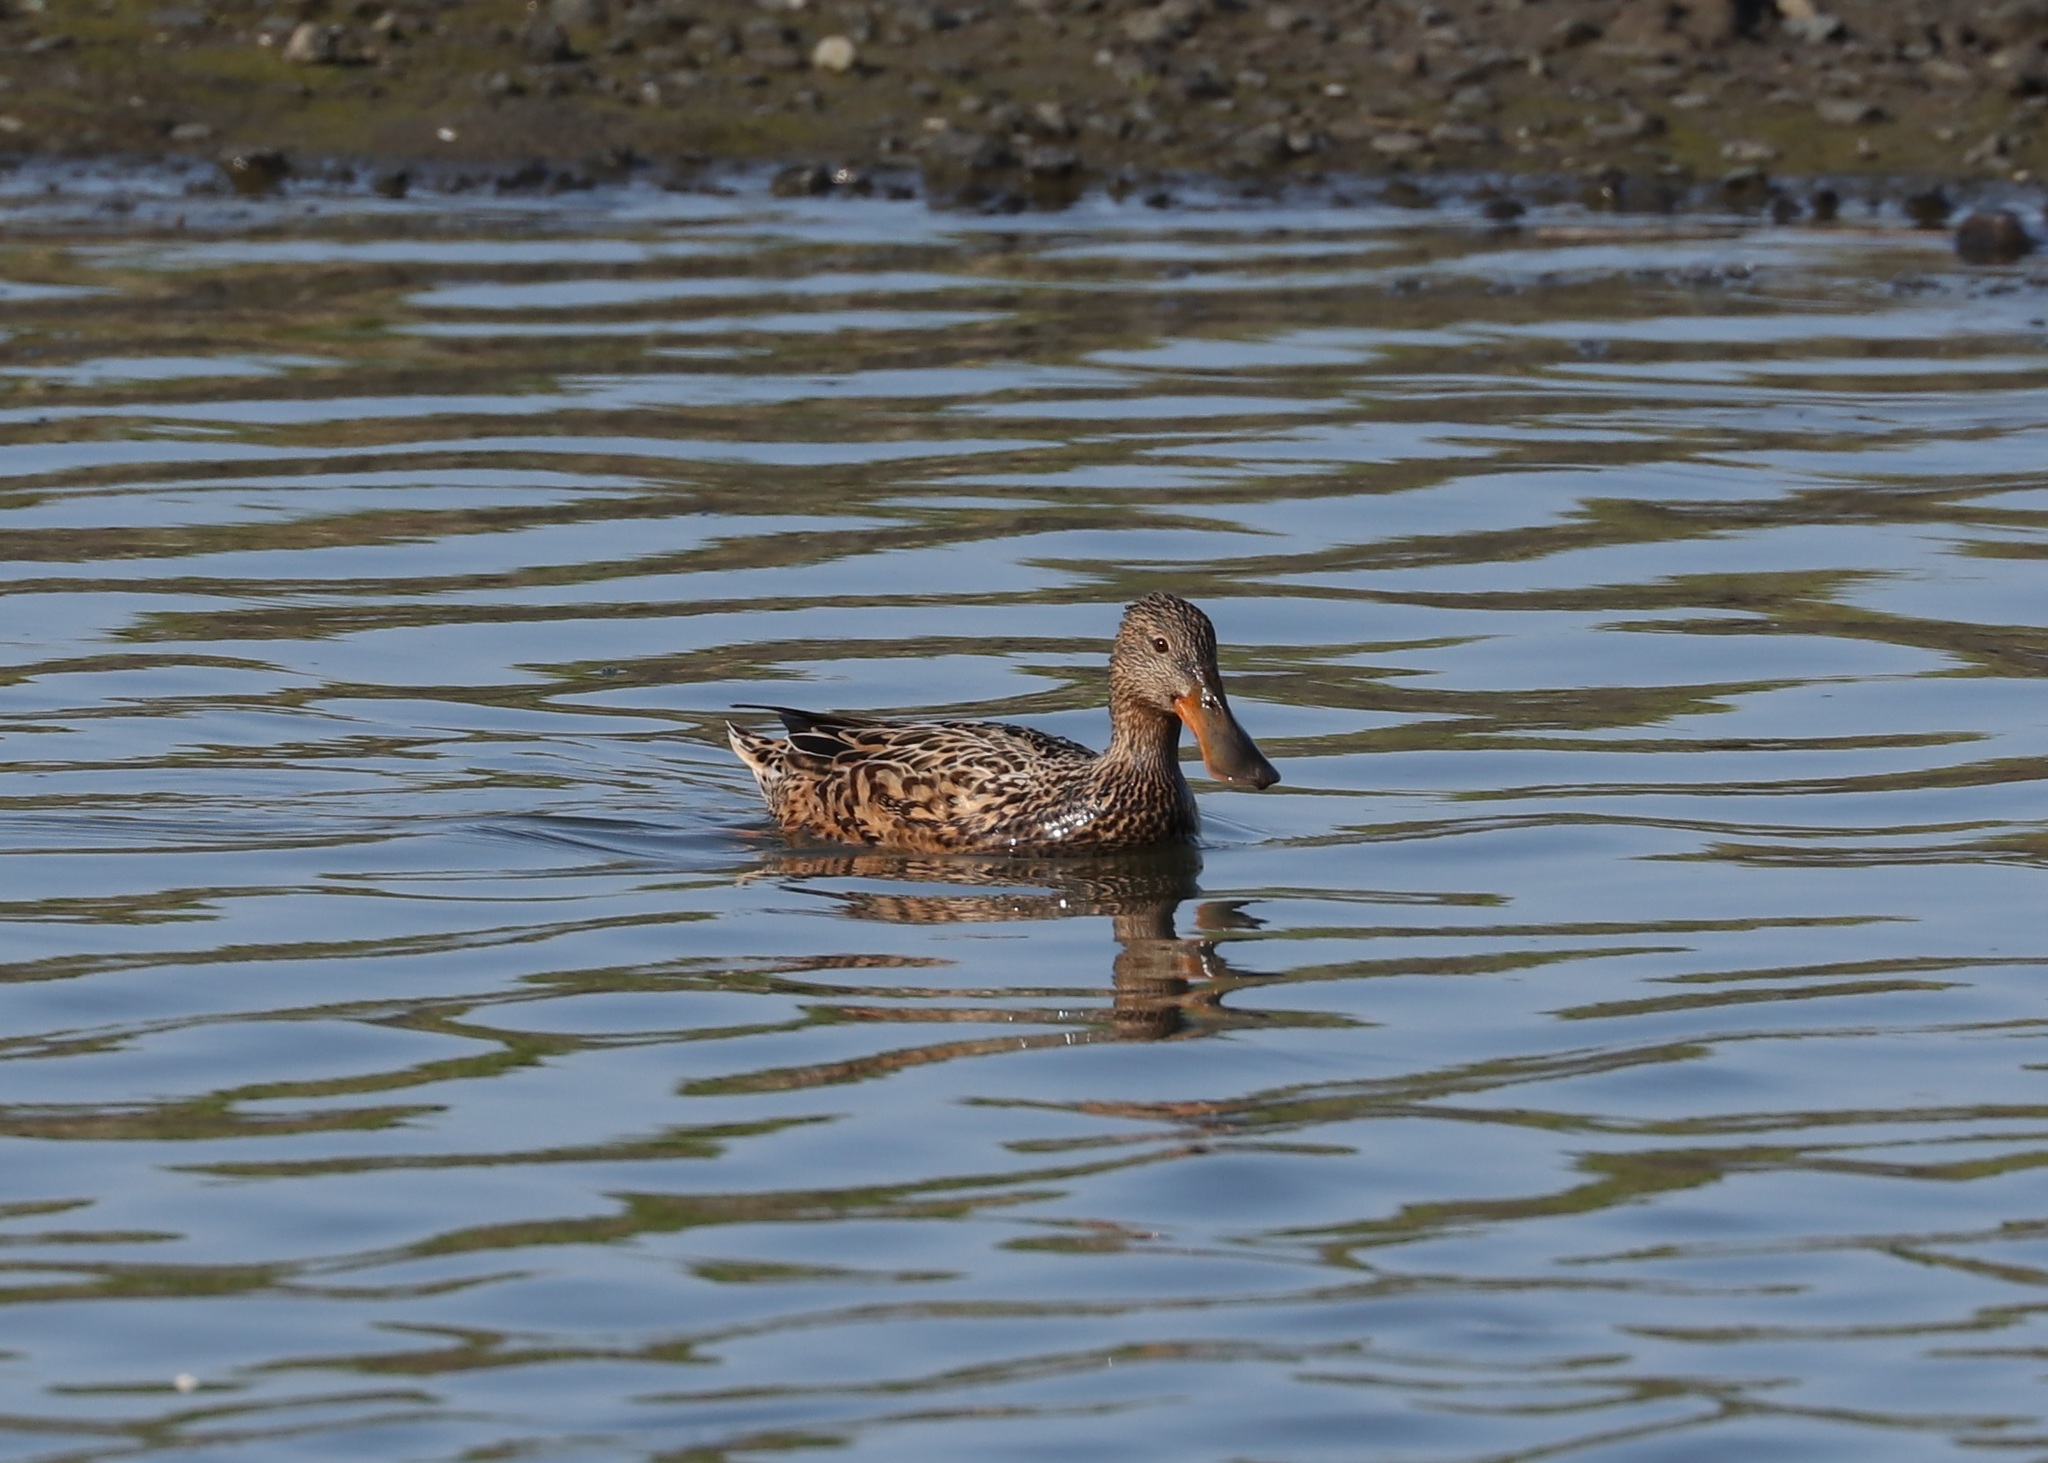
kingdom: Animalia
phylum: Chordata
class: Aves
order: Anseriformes
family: Anatidae
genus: Spatula
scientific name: Spatula clypeata
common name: Northern shoveler
